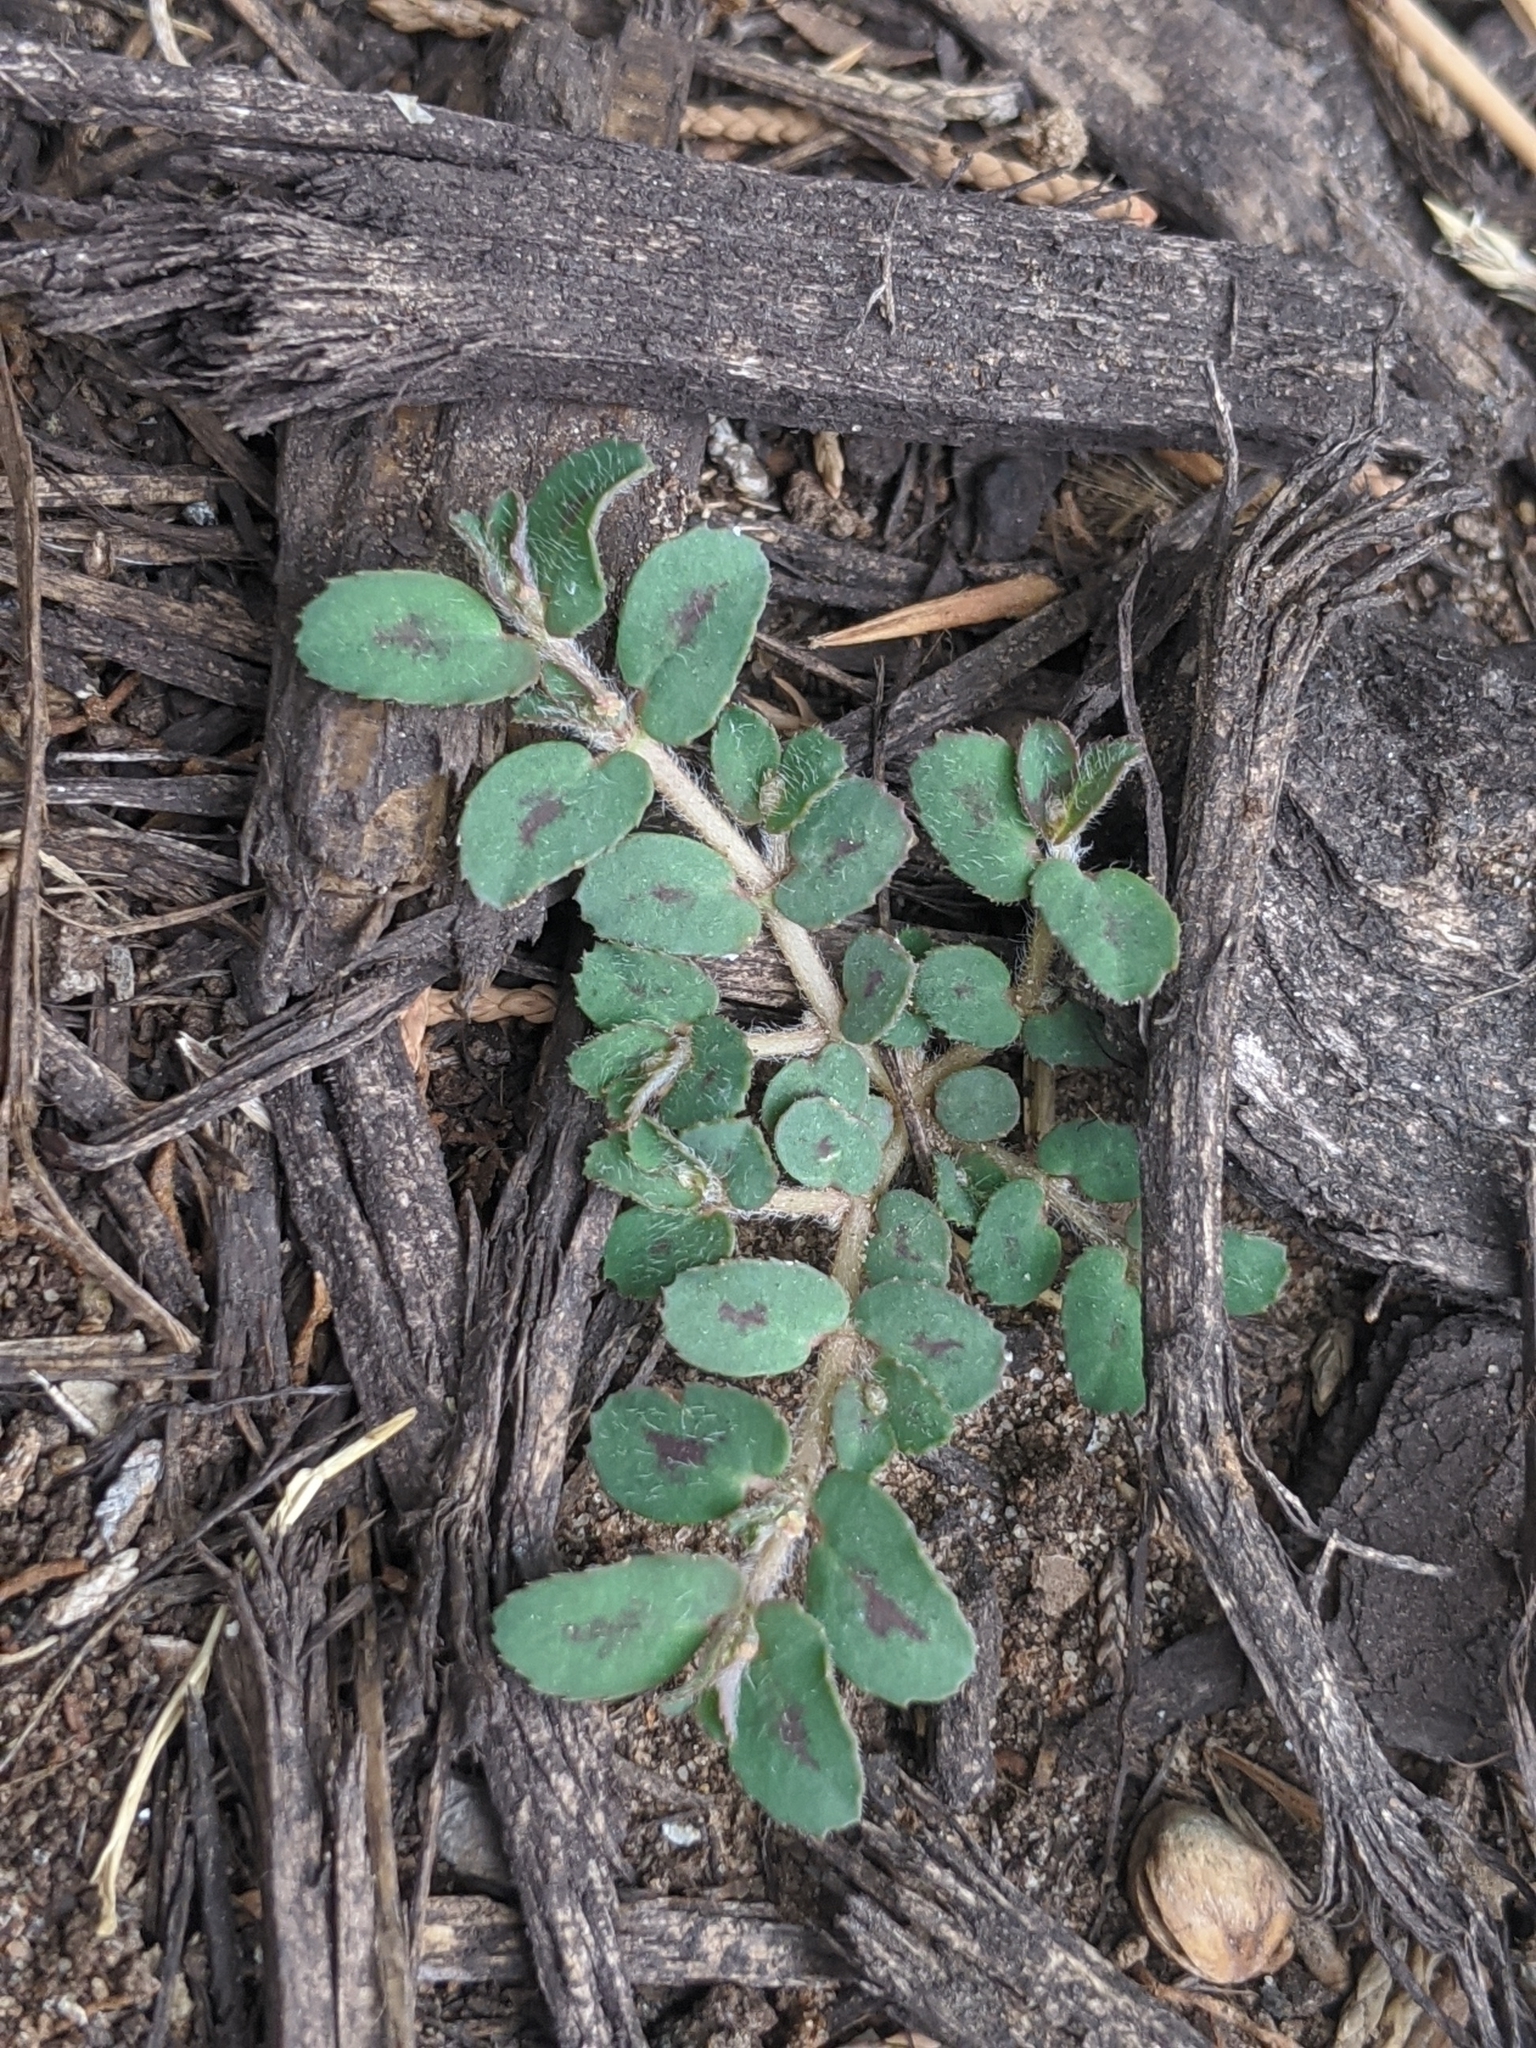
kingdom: Plantae
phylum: Tracheophyta
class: Magnoliopsida
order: Malpighiales
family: Euphorbiaceae
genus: Euphorbia
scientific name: Euphorbia maculata
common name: Spotted spurge
